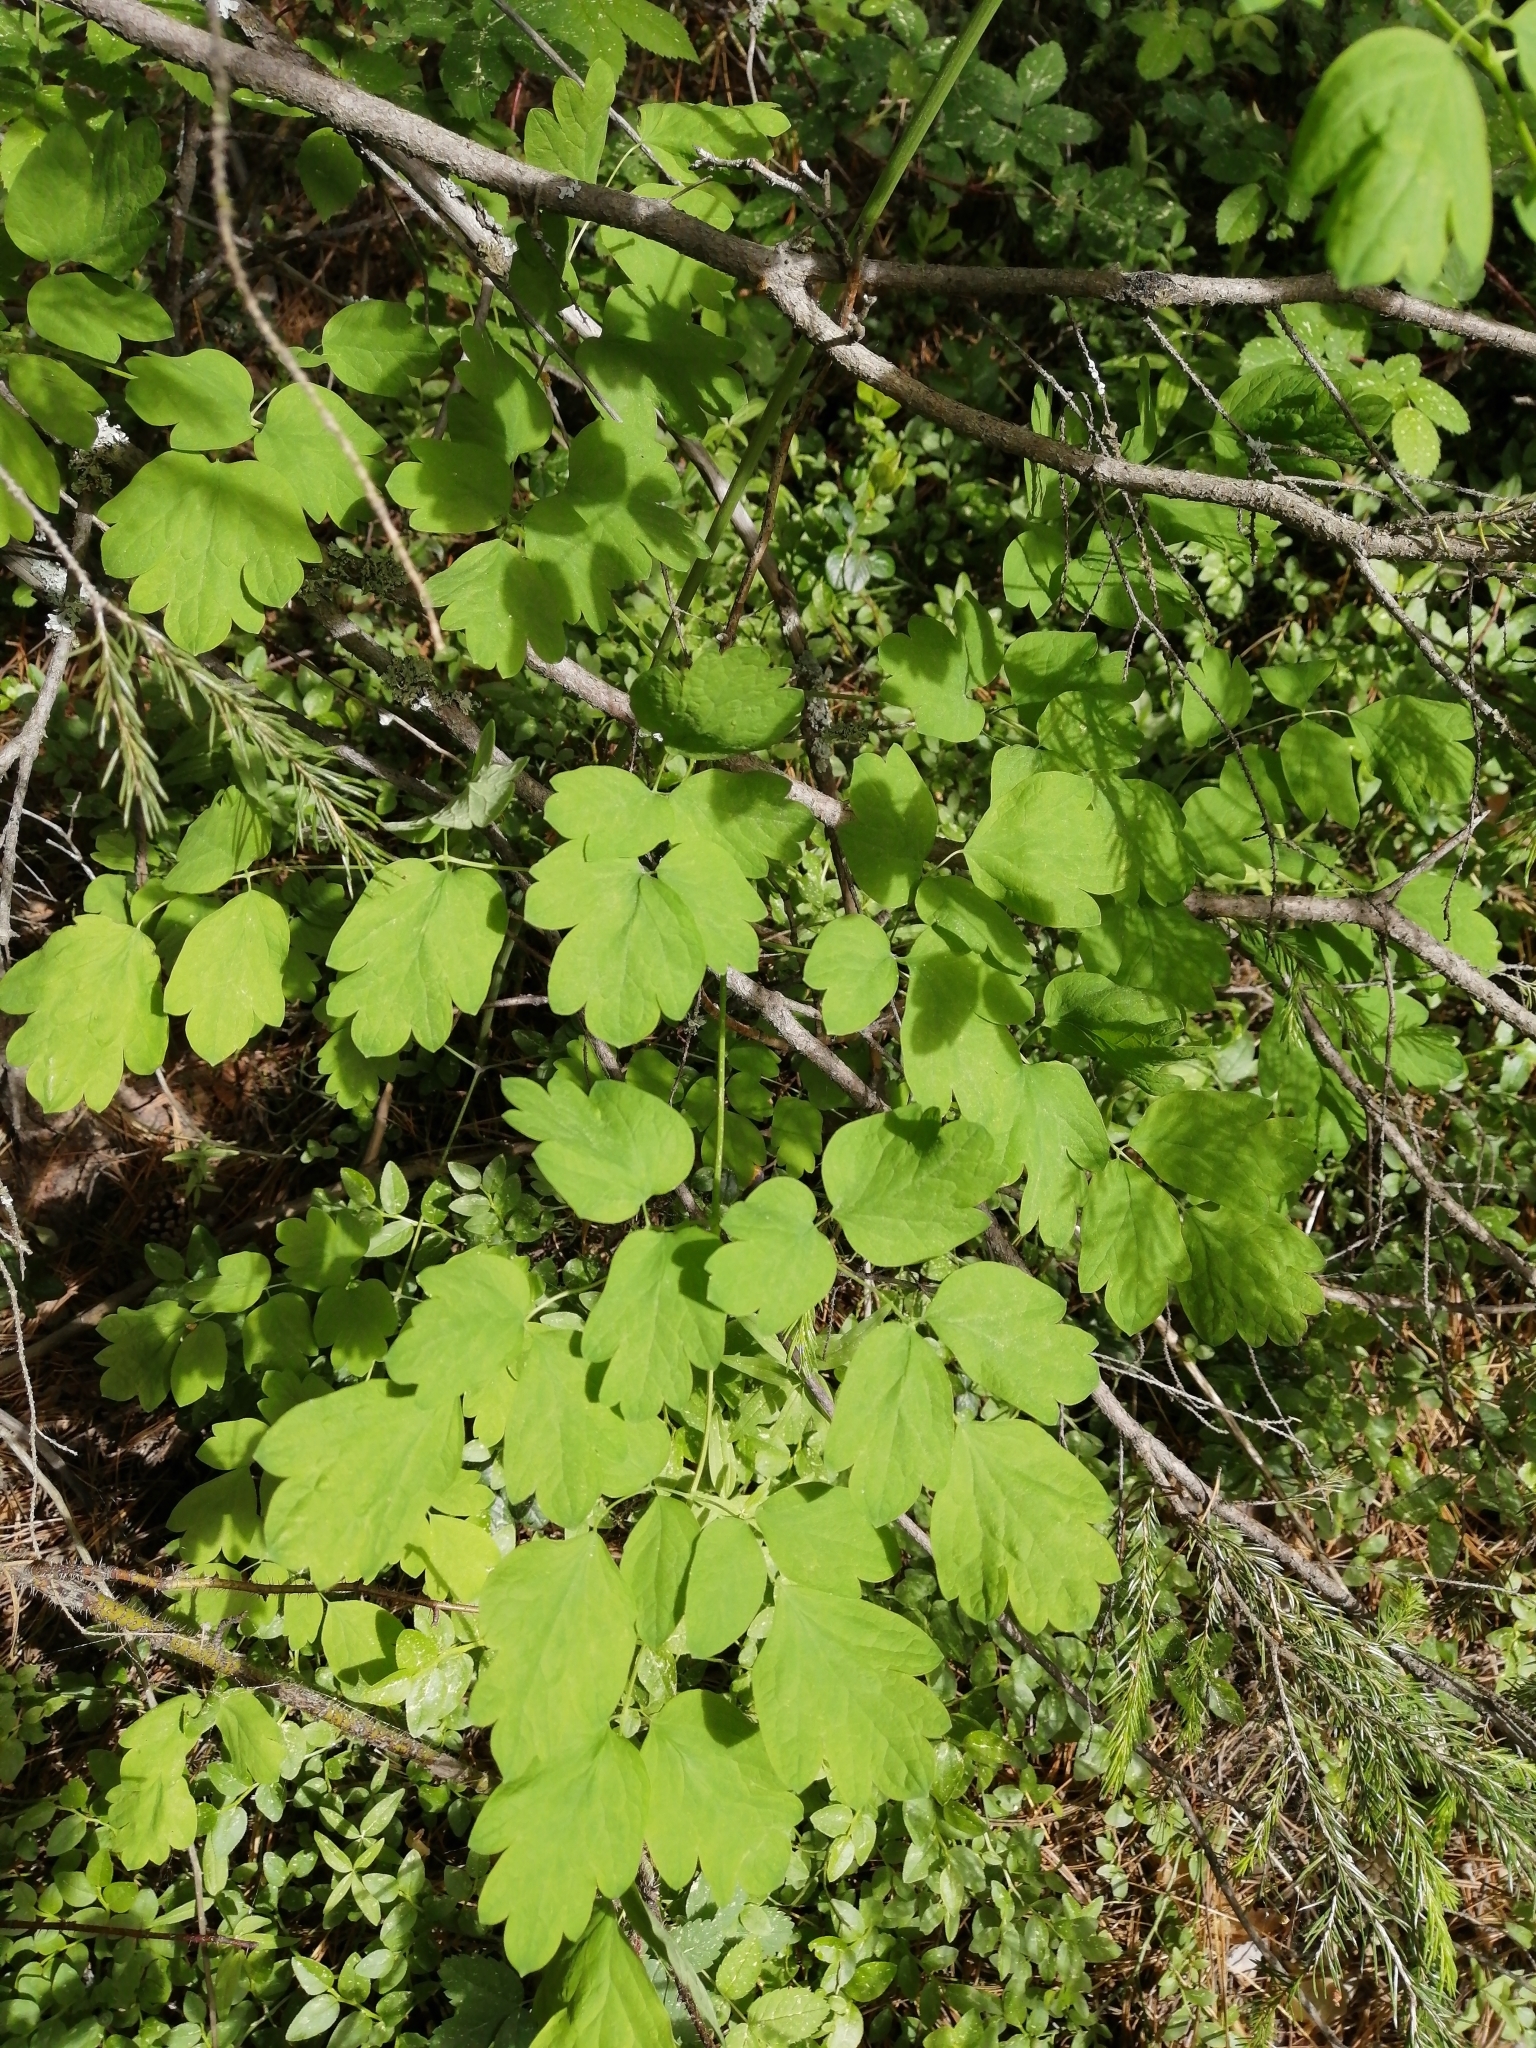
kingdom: Plantae
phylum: Tracheophyta
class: Magnoliopsida
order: Ranunculales
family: Ranunculaceae
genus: Thalictrum
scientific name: Thalictrum minus
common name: Lesser meadow-rue
